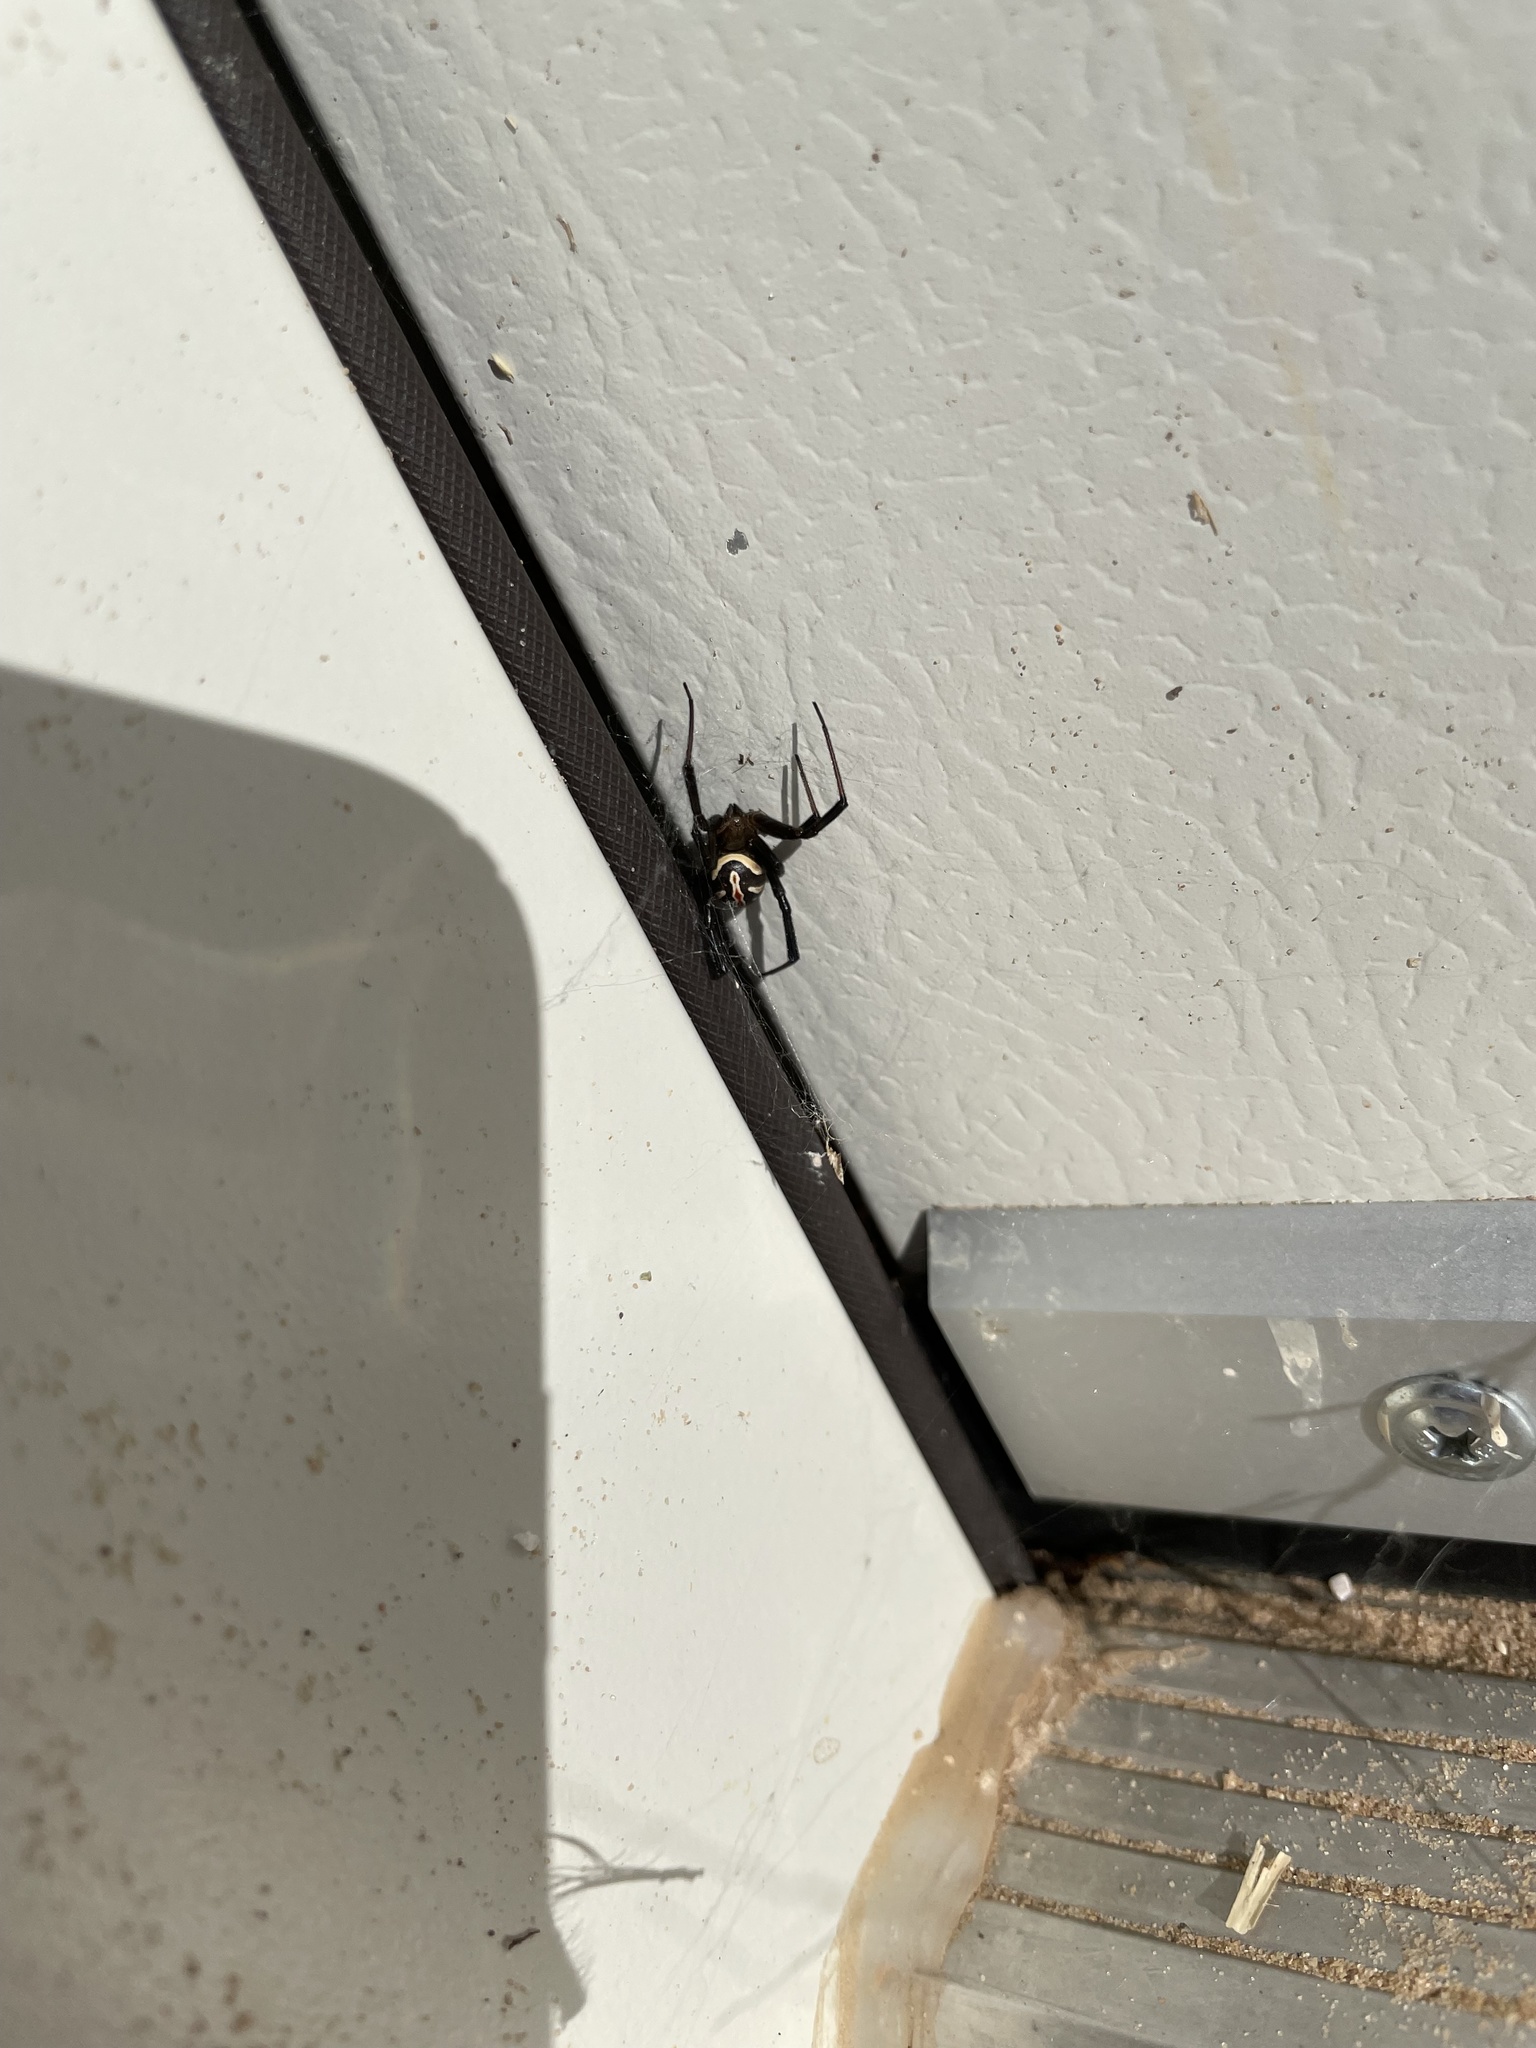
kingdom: Animalia
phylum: Arthropoda
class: Arachnida
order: Araneae
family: Theridiidae
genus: Latrodectus
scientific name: Latrodectus hesperus
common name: Western black widow
